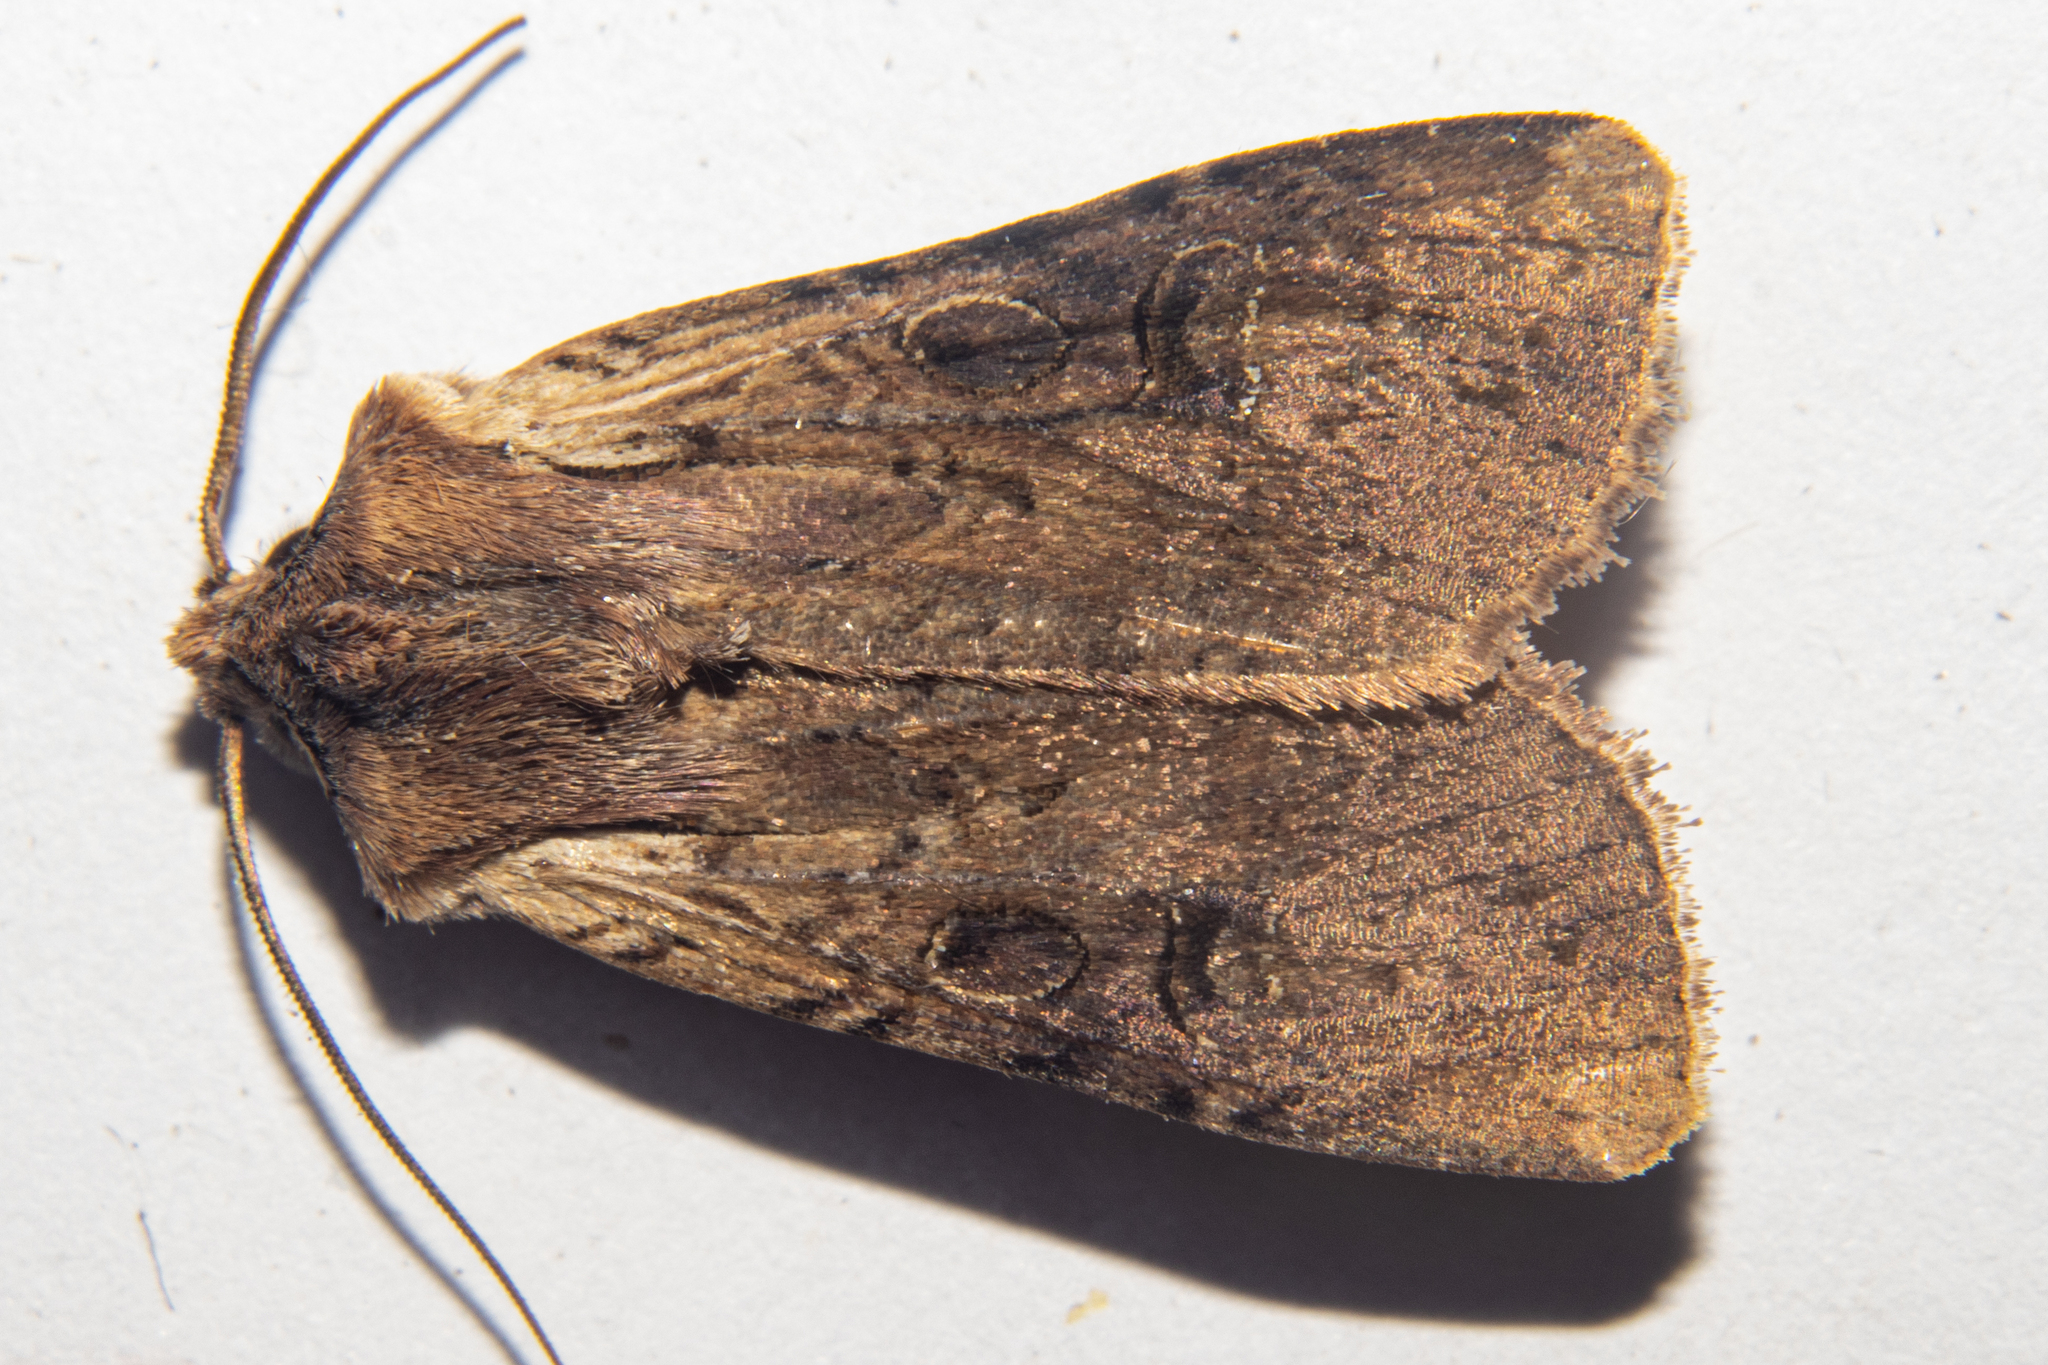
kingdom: Animalia
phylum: Arthropoda
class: Insecta
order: Lepidoptera
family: Noctuidae
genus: Ichneutica
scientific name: Ichneutica omoplaca
